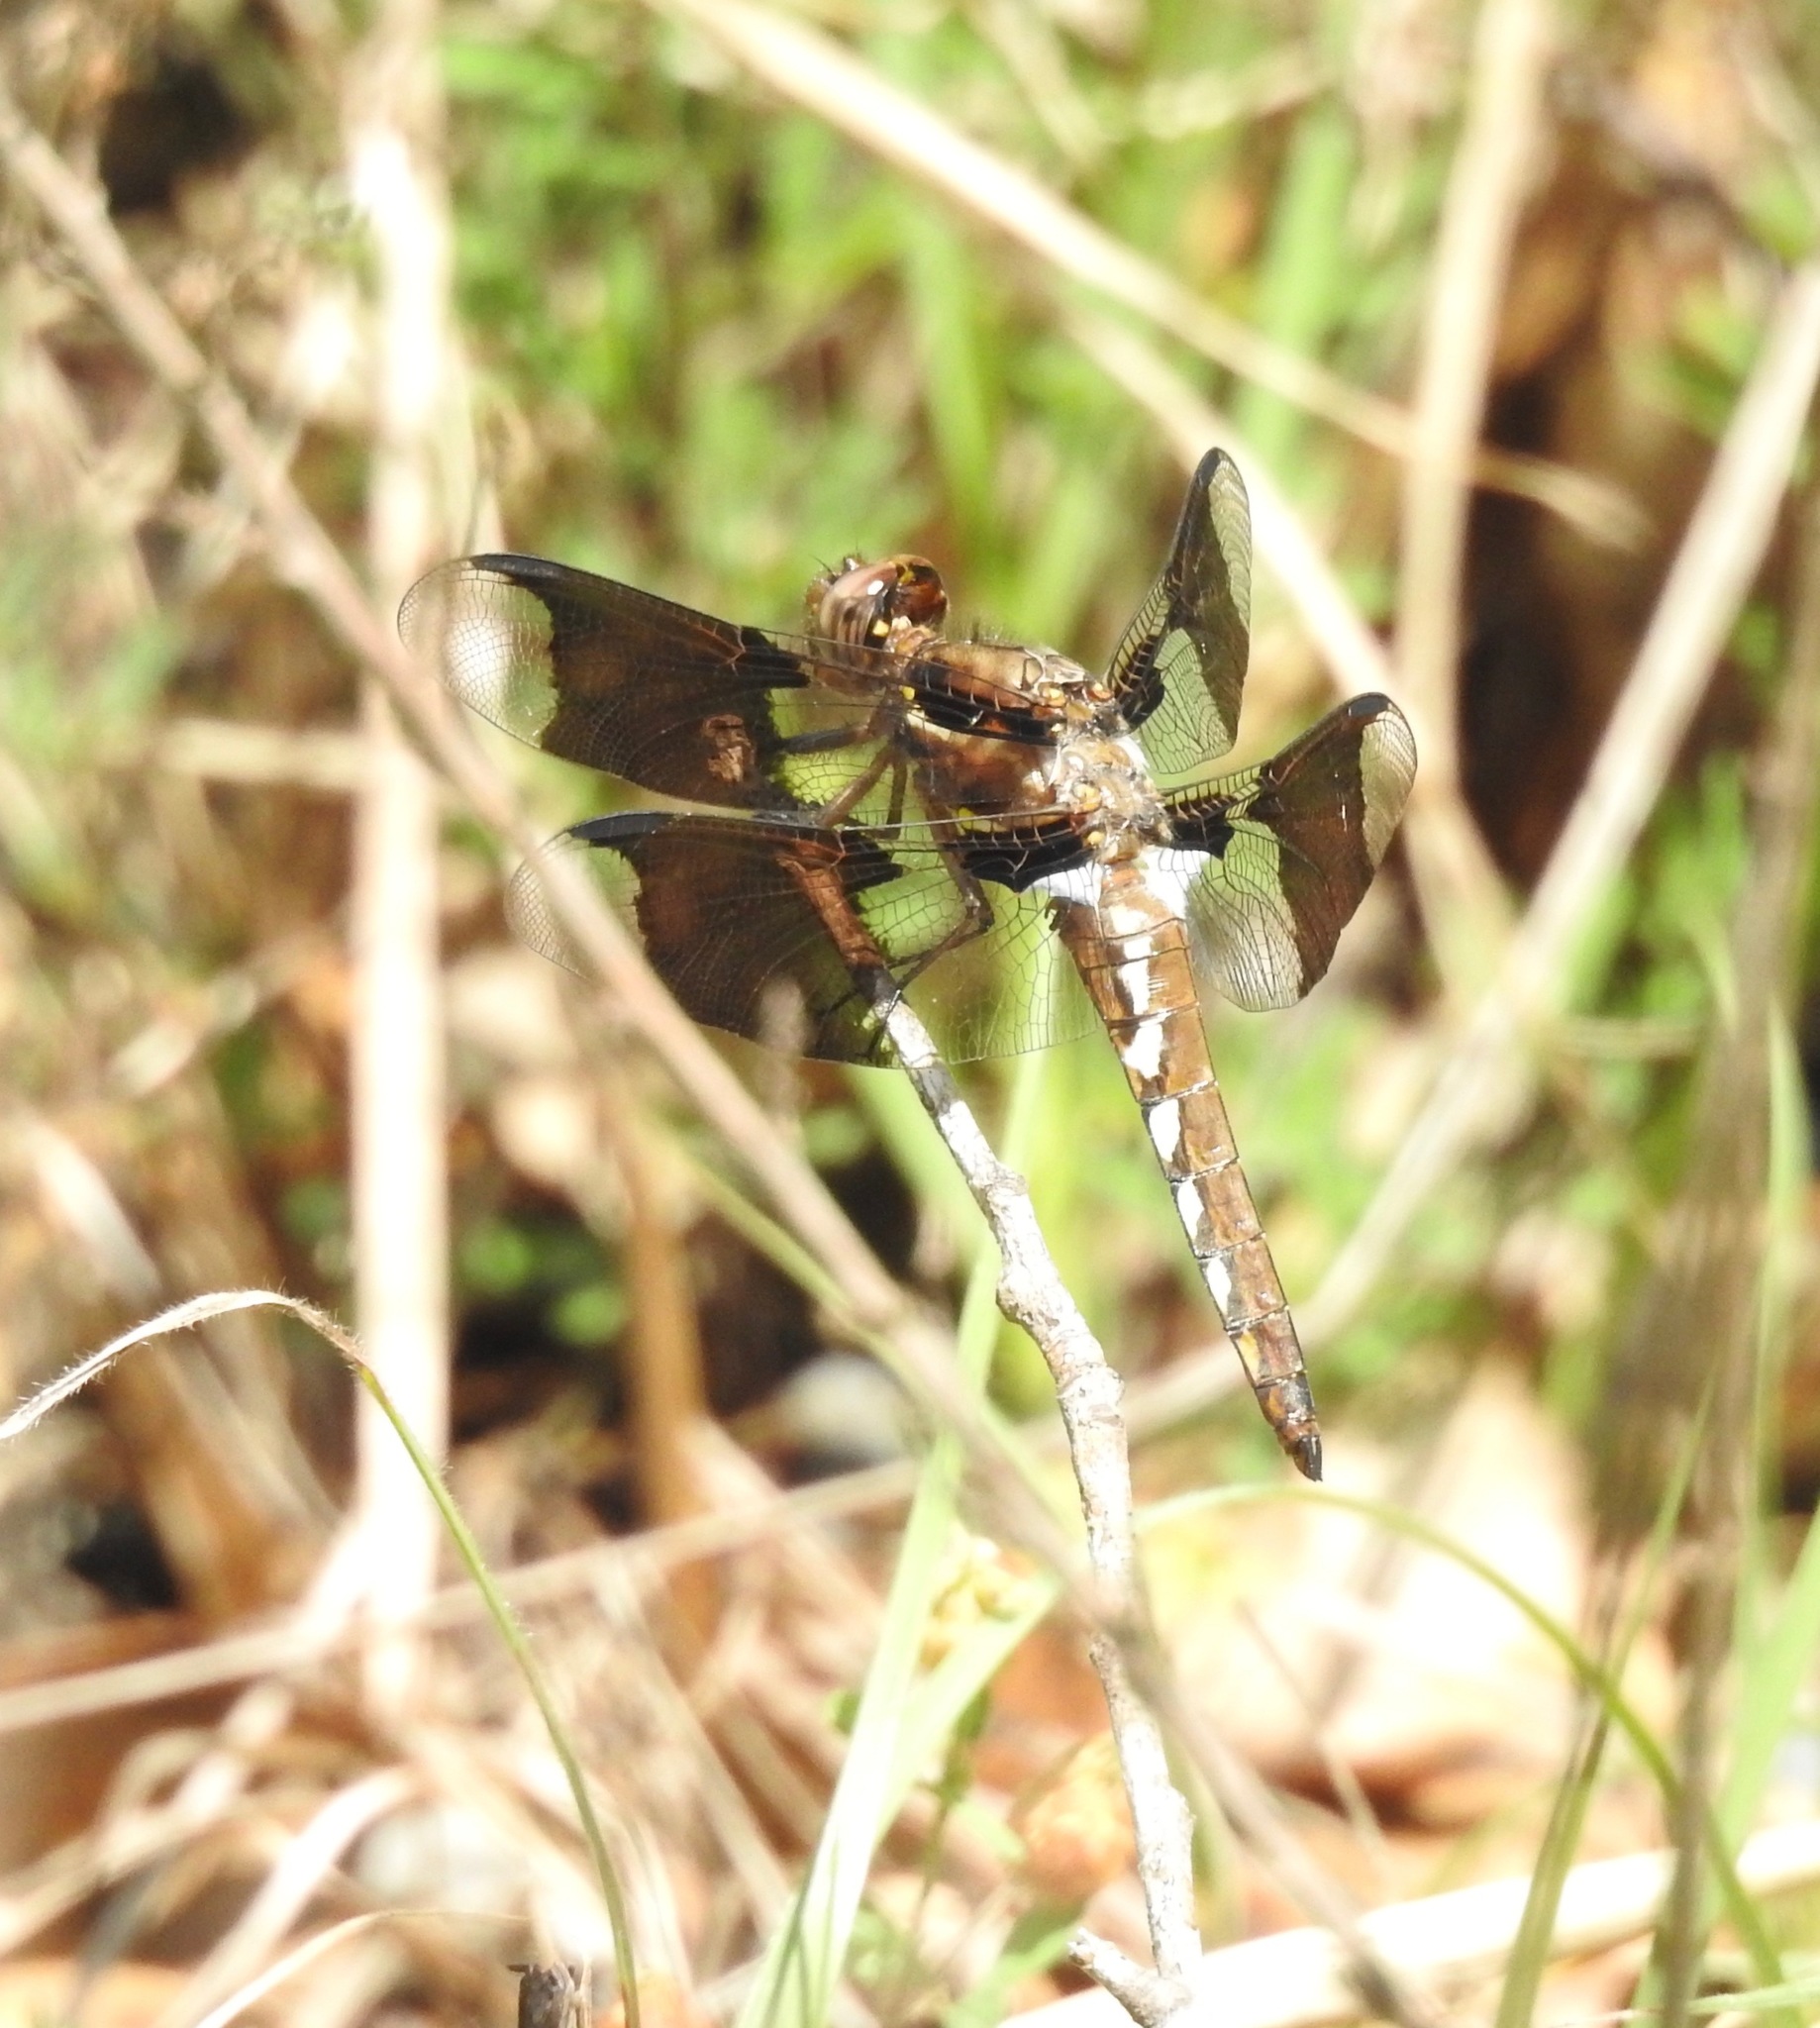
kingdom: Animalia
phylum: Arthropoda
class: Insecta
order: Odonata
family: Libellulidae
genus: Plathemis
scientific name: Plathemis lydia
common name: Common whitetail
